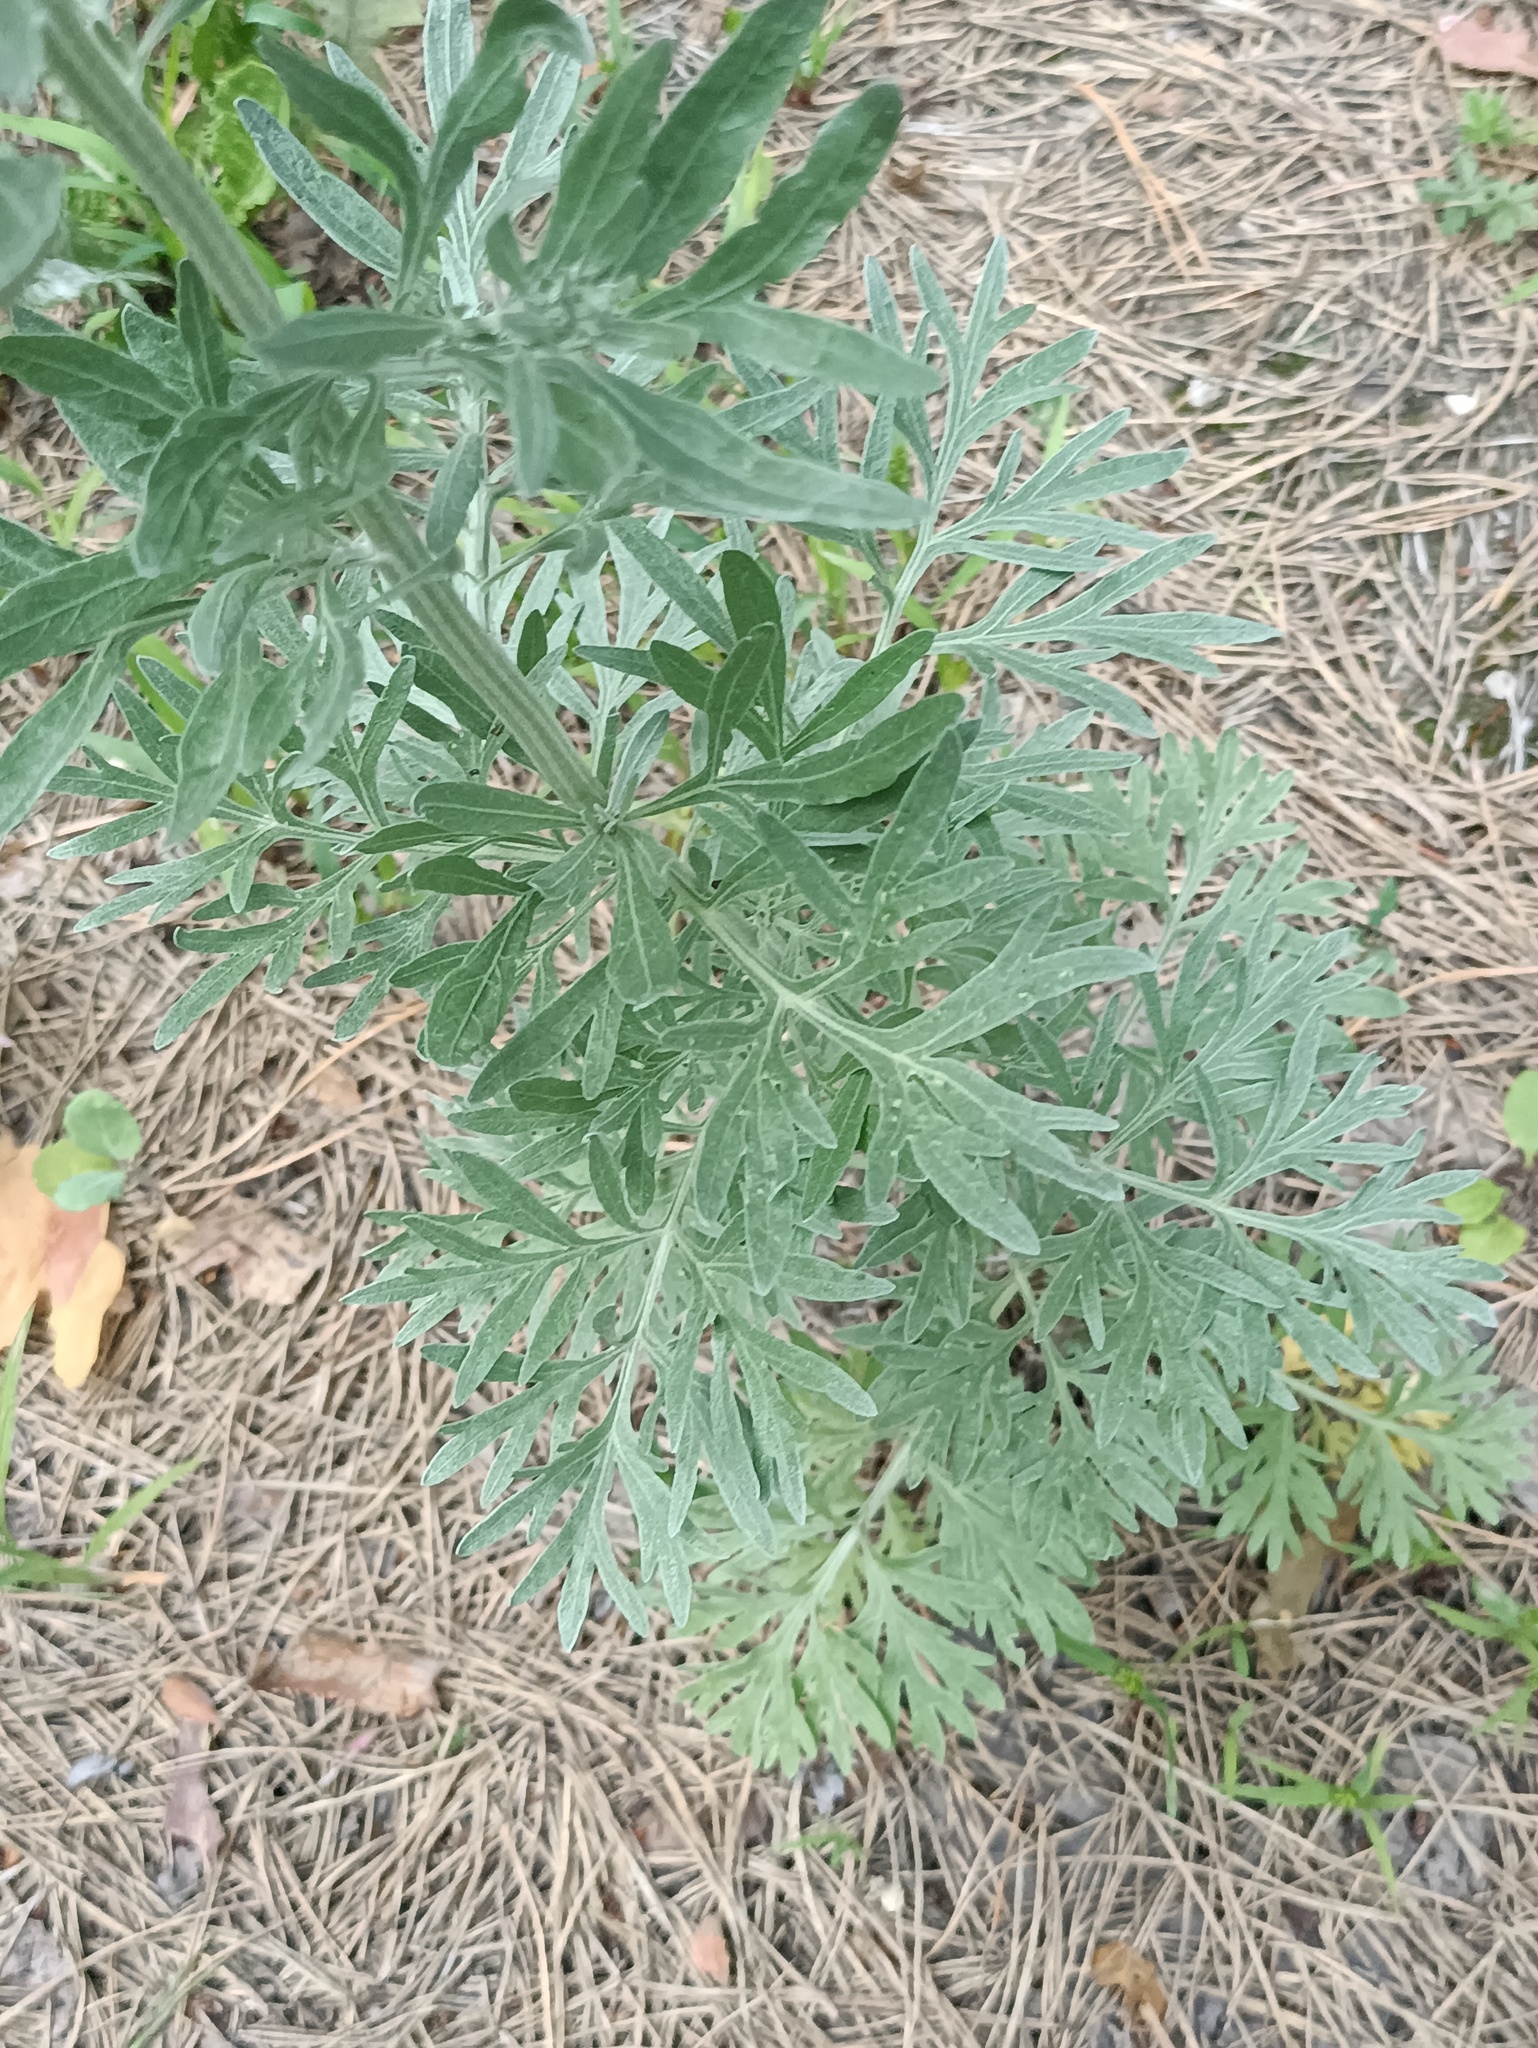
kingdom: Plantae
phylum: Tracheophyta
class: Magnoliopsida
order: Asterales
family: Asteraceae
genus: Artemisia
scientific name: Artemisia absinthium
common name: Wormwood
